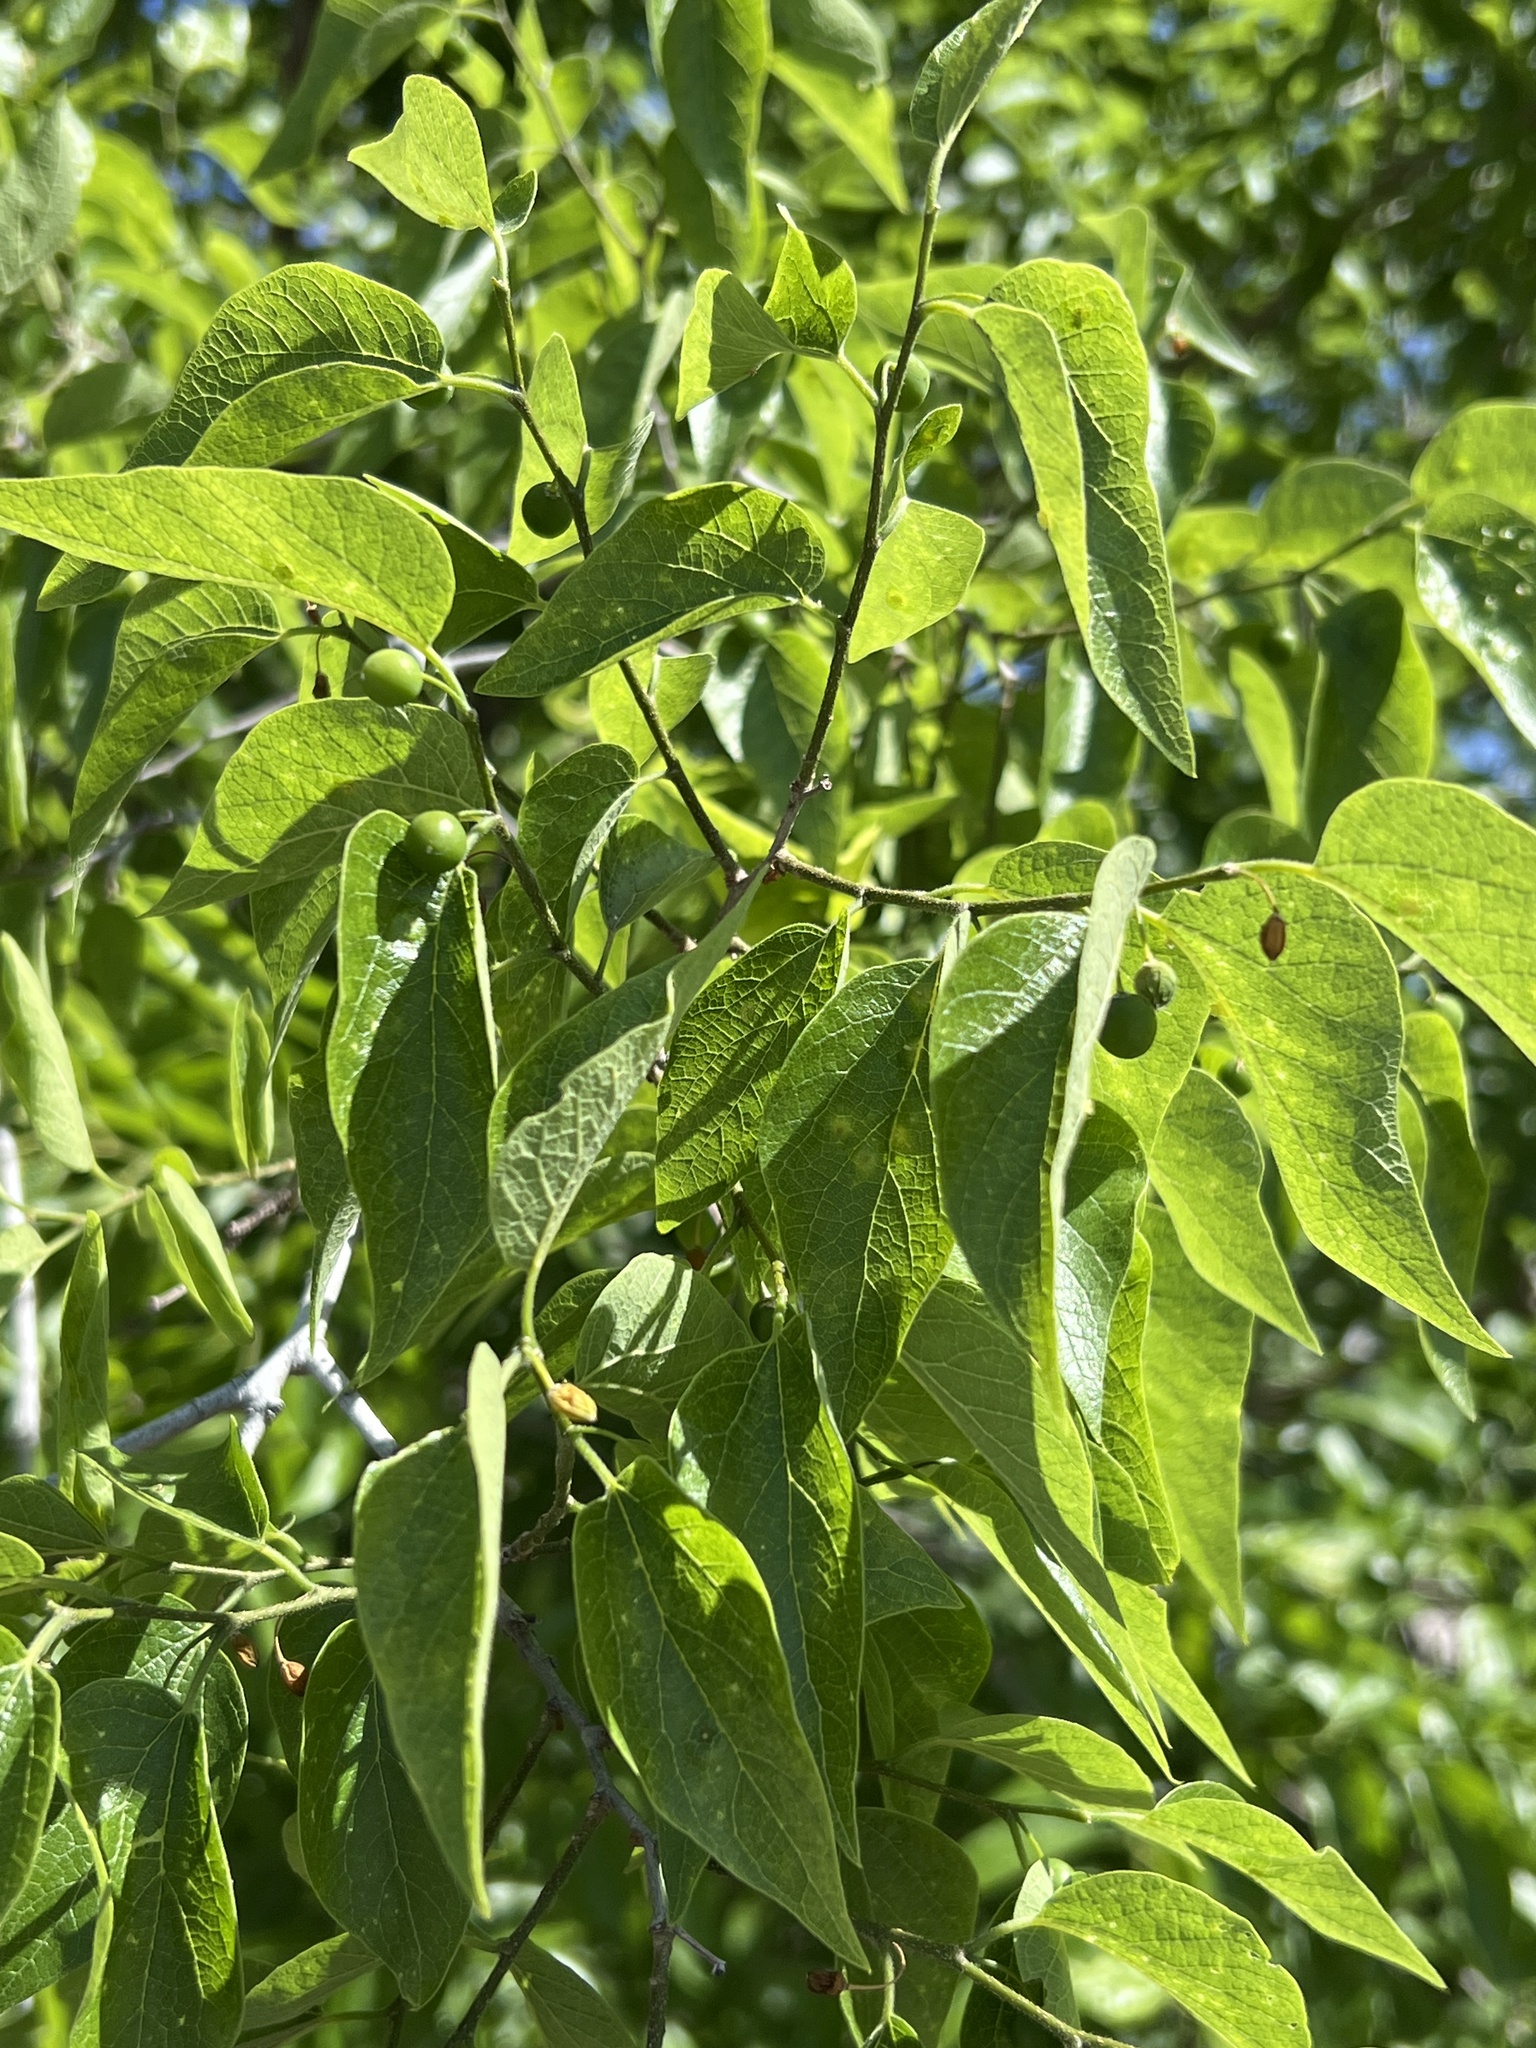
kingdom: Plantae
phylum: Tracheophyta
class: Magnoliopsida
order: Rosales
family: Cannabaceae
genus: Celtis
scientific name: Celtis reticulata
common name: Netleaf hackberry
